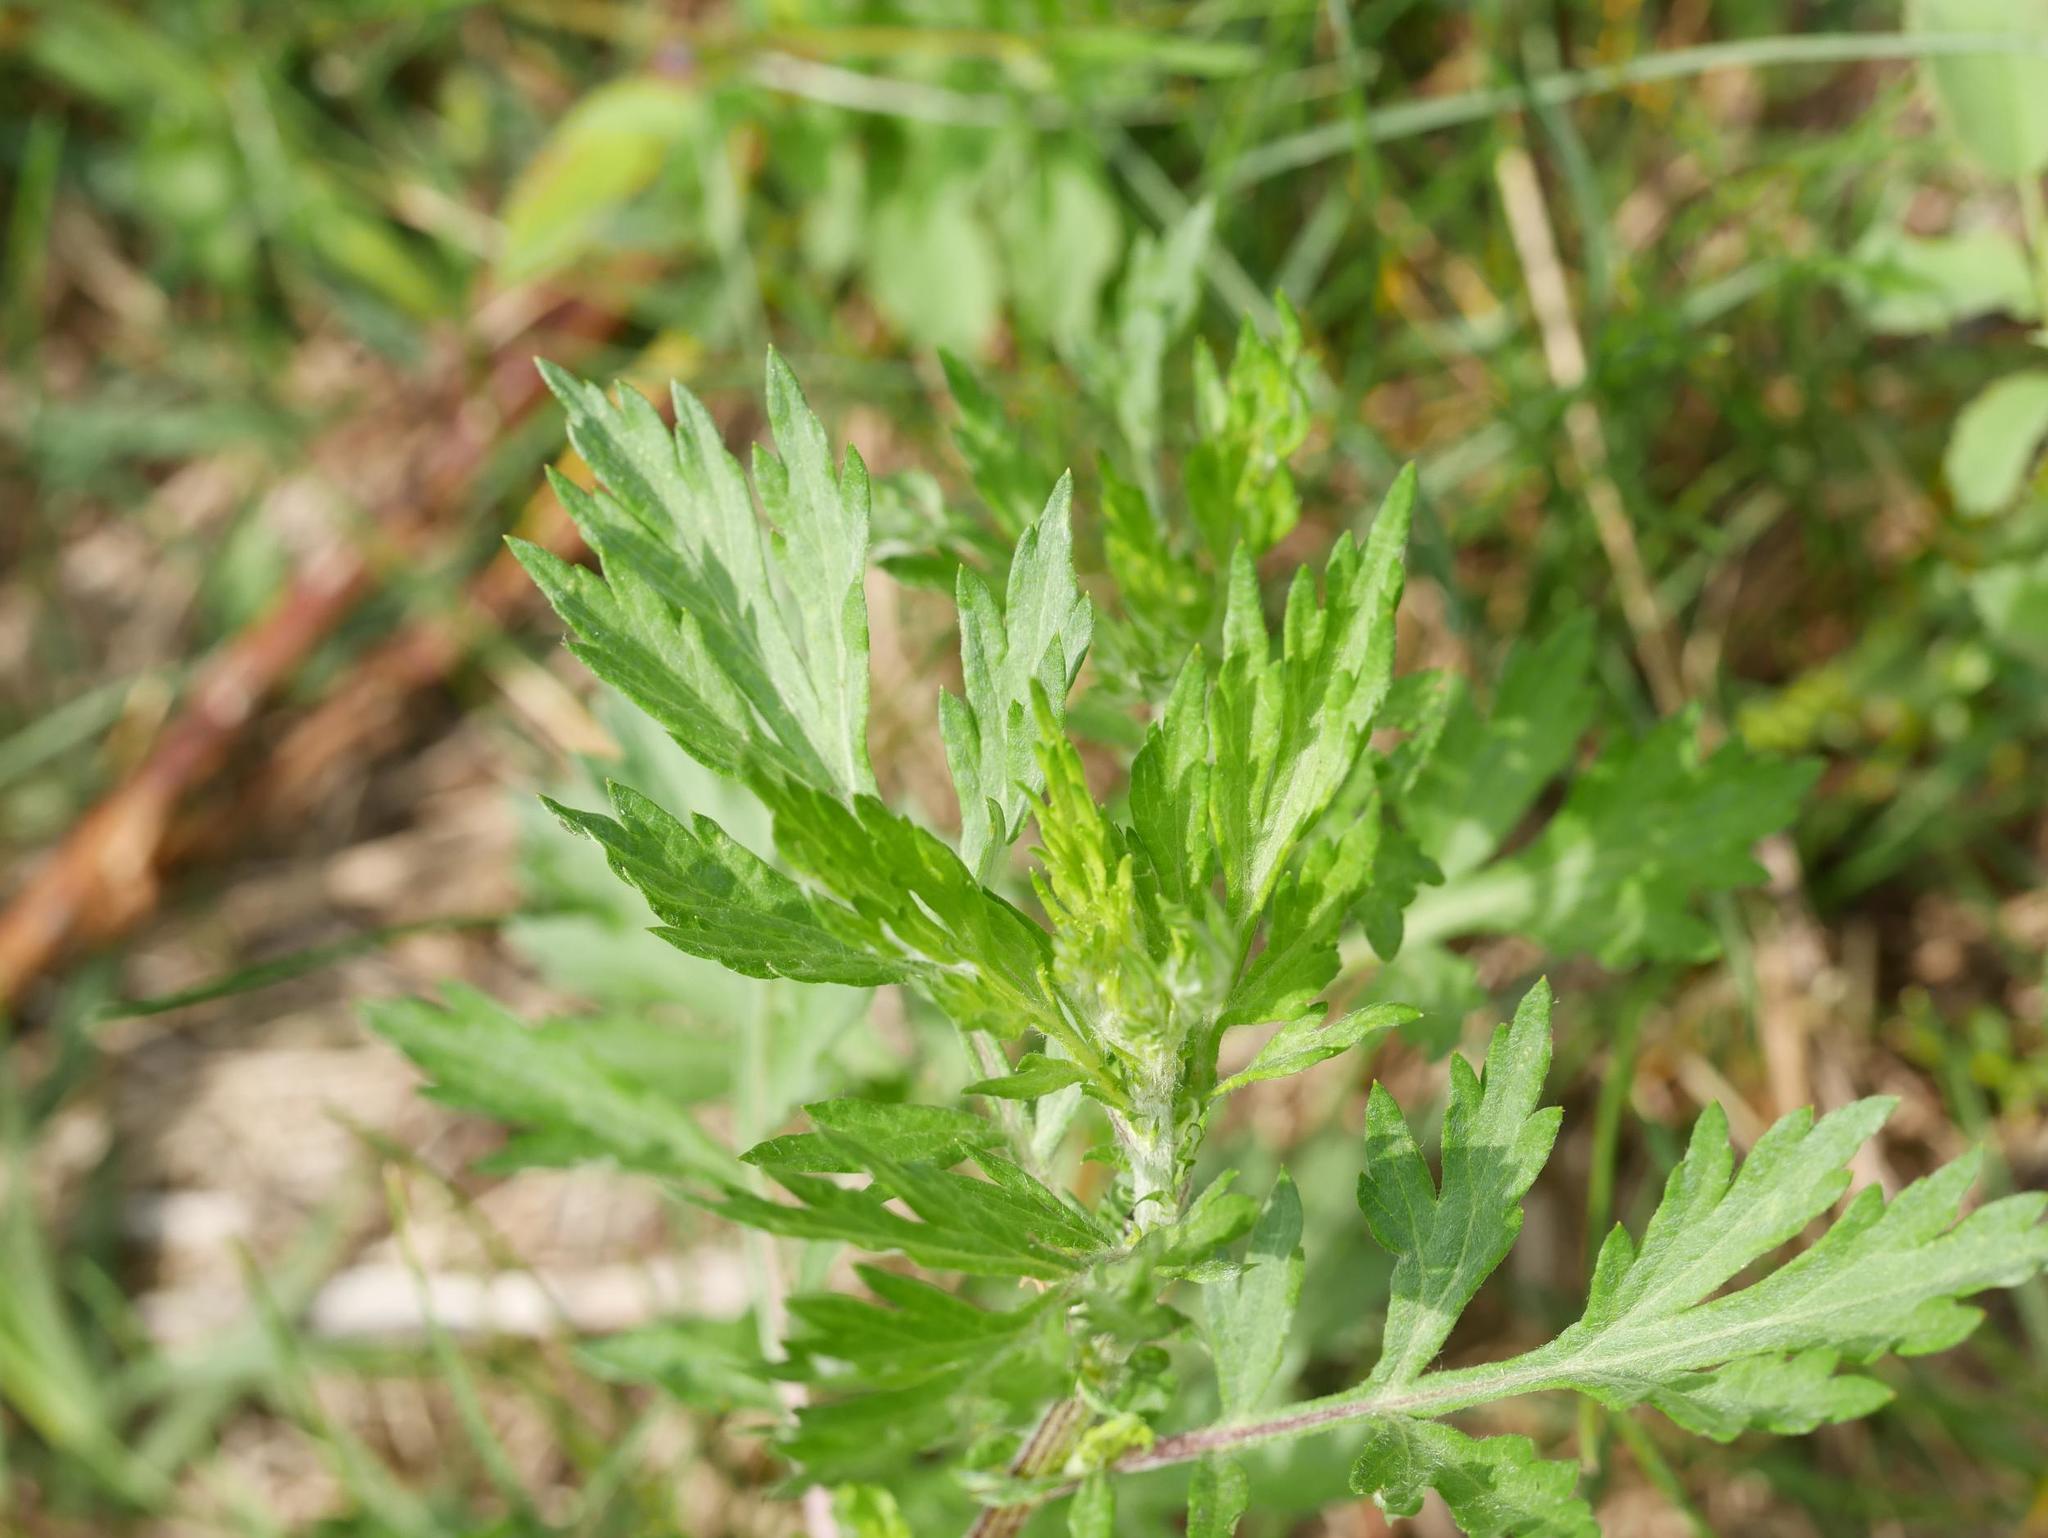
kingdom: Plantae
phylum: Tracheophyta
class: Magnoliopsida
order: Asterales
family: Asteraceae
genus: Artemisia
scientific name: Artemisia vulgaris
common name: Mugwort
